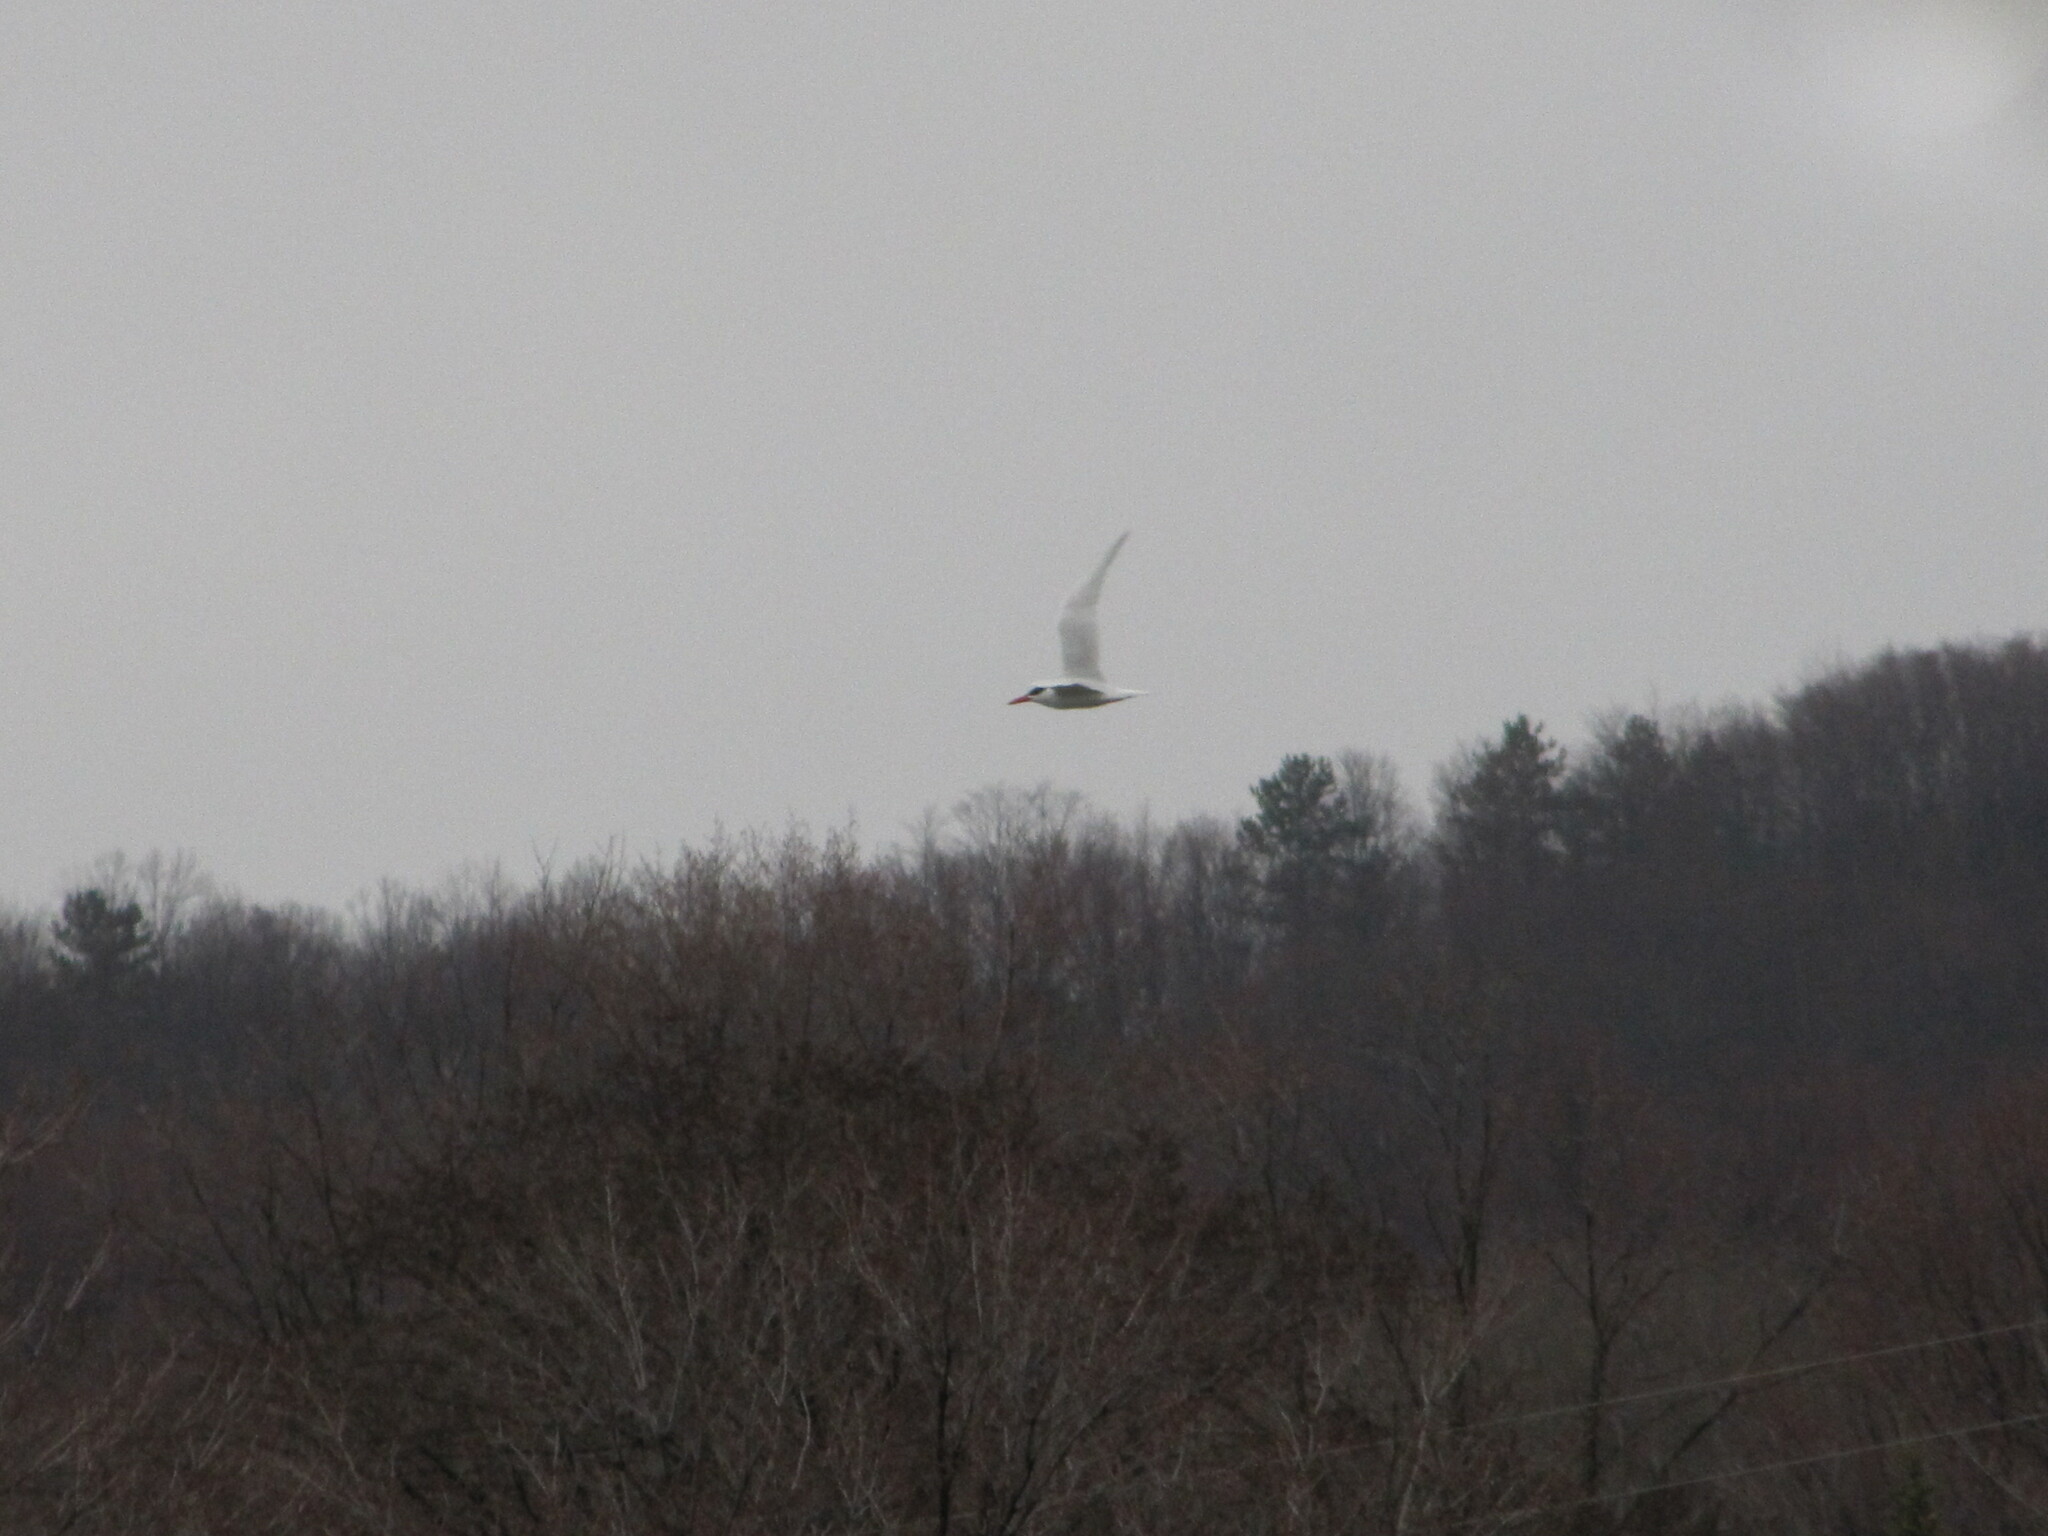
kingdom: Animalia
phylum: Chordata
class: Aves
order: Charadriiformes
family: Laridae
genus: Hydroprogne
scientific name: Hydroprogne caspia
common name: Caspian tern
